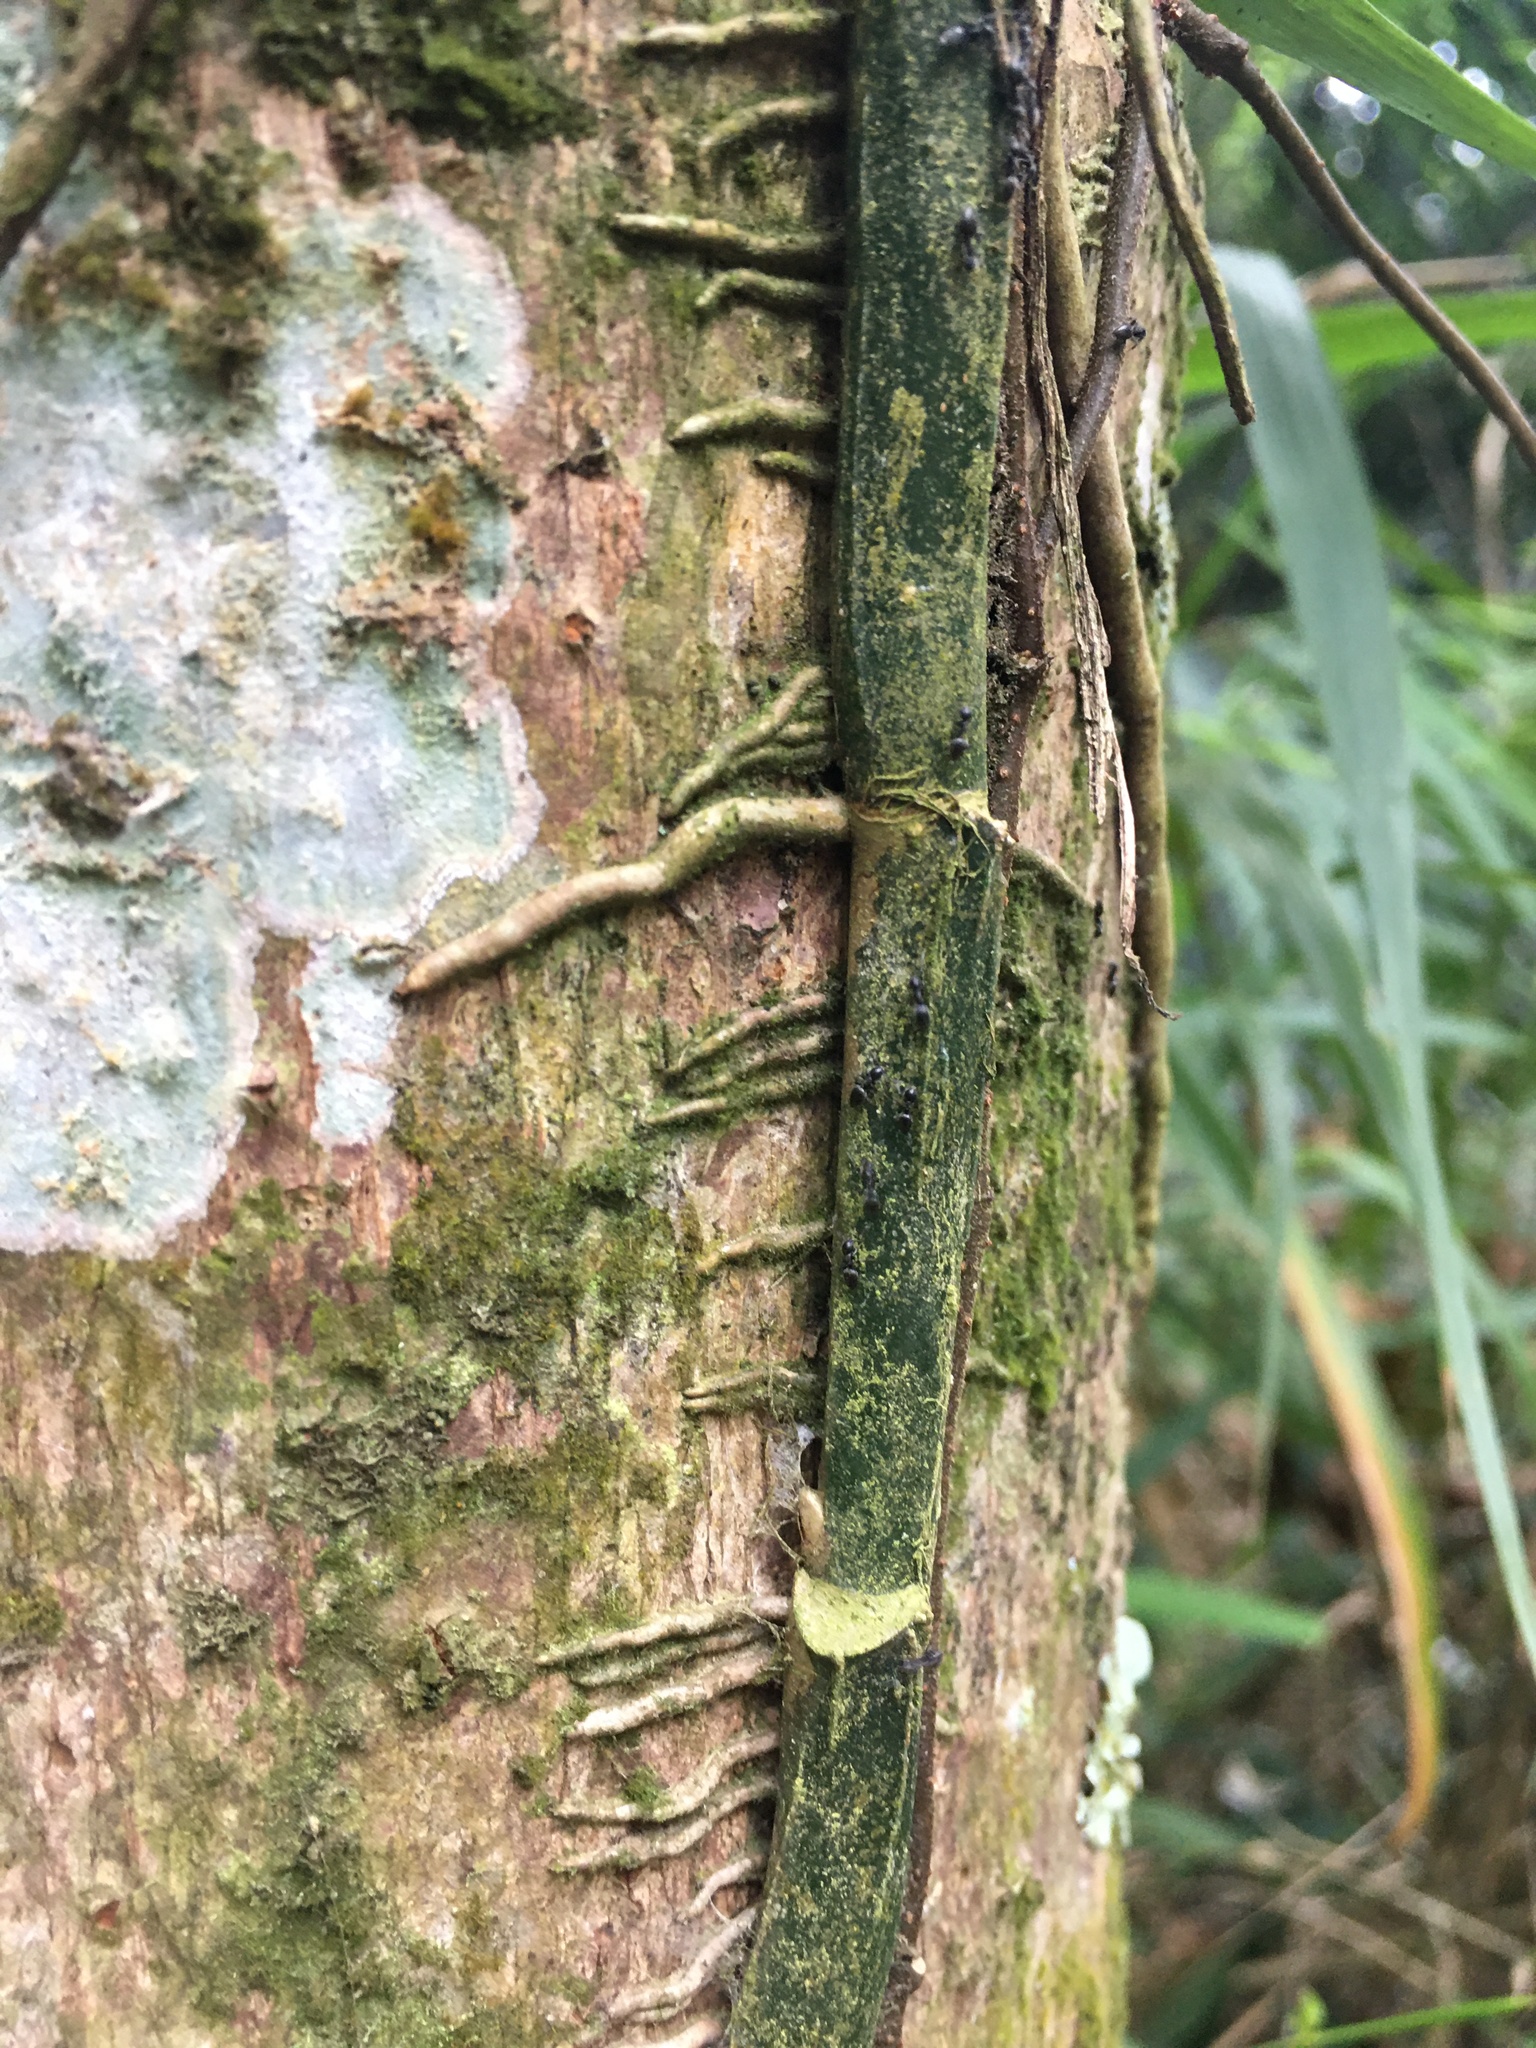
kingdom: Plantae
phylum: Tracheophyta
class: Liliopsida
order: Alismatales
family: Araceae
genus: Epipremnum
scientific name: Epipremnum pinnatum
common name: Centipede tongavine
